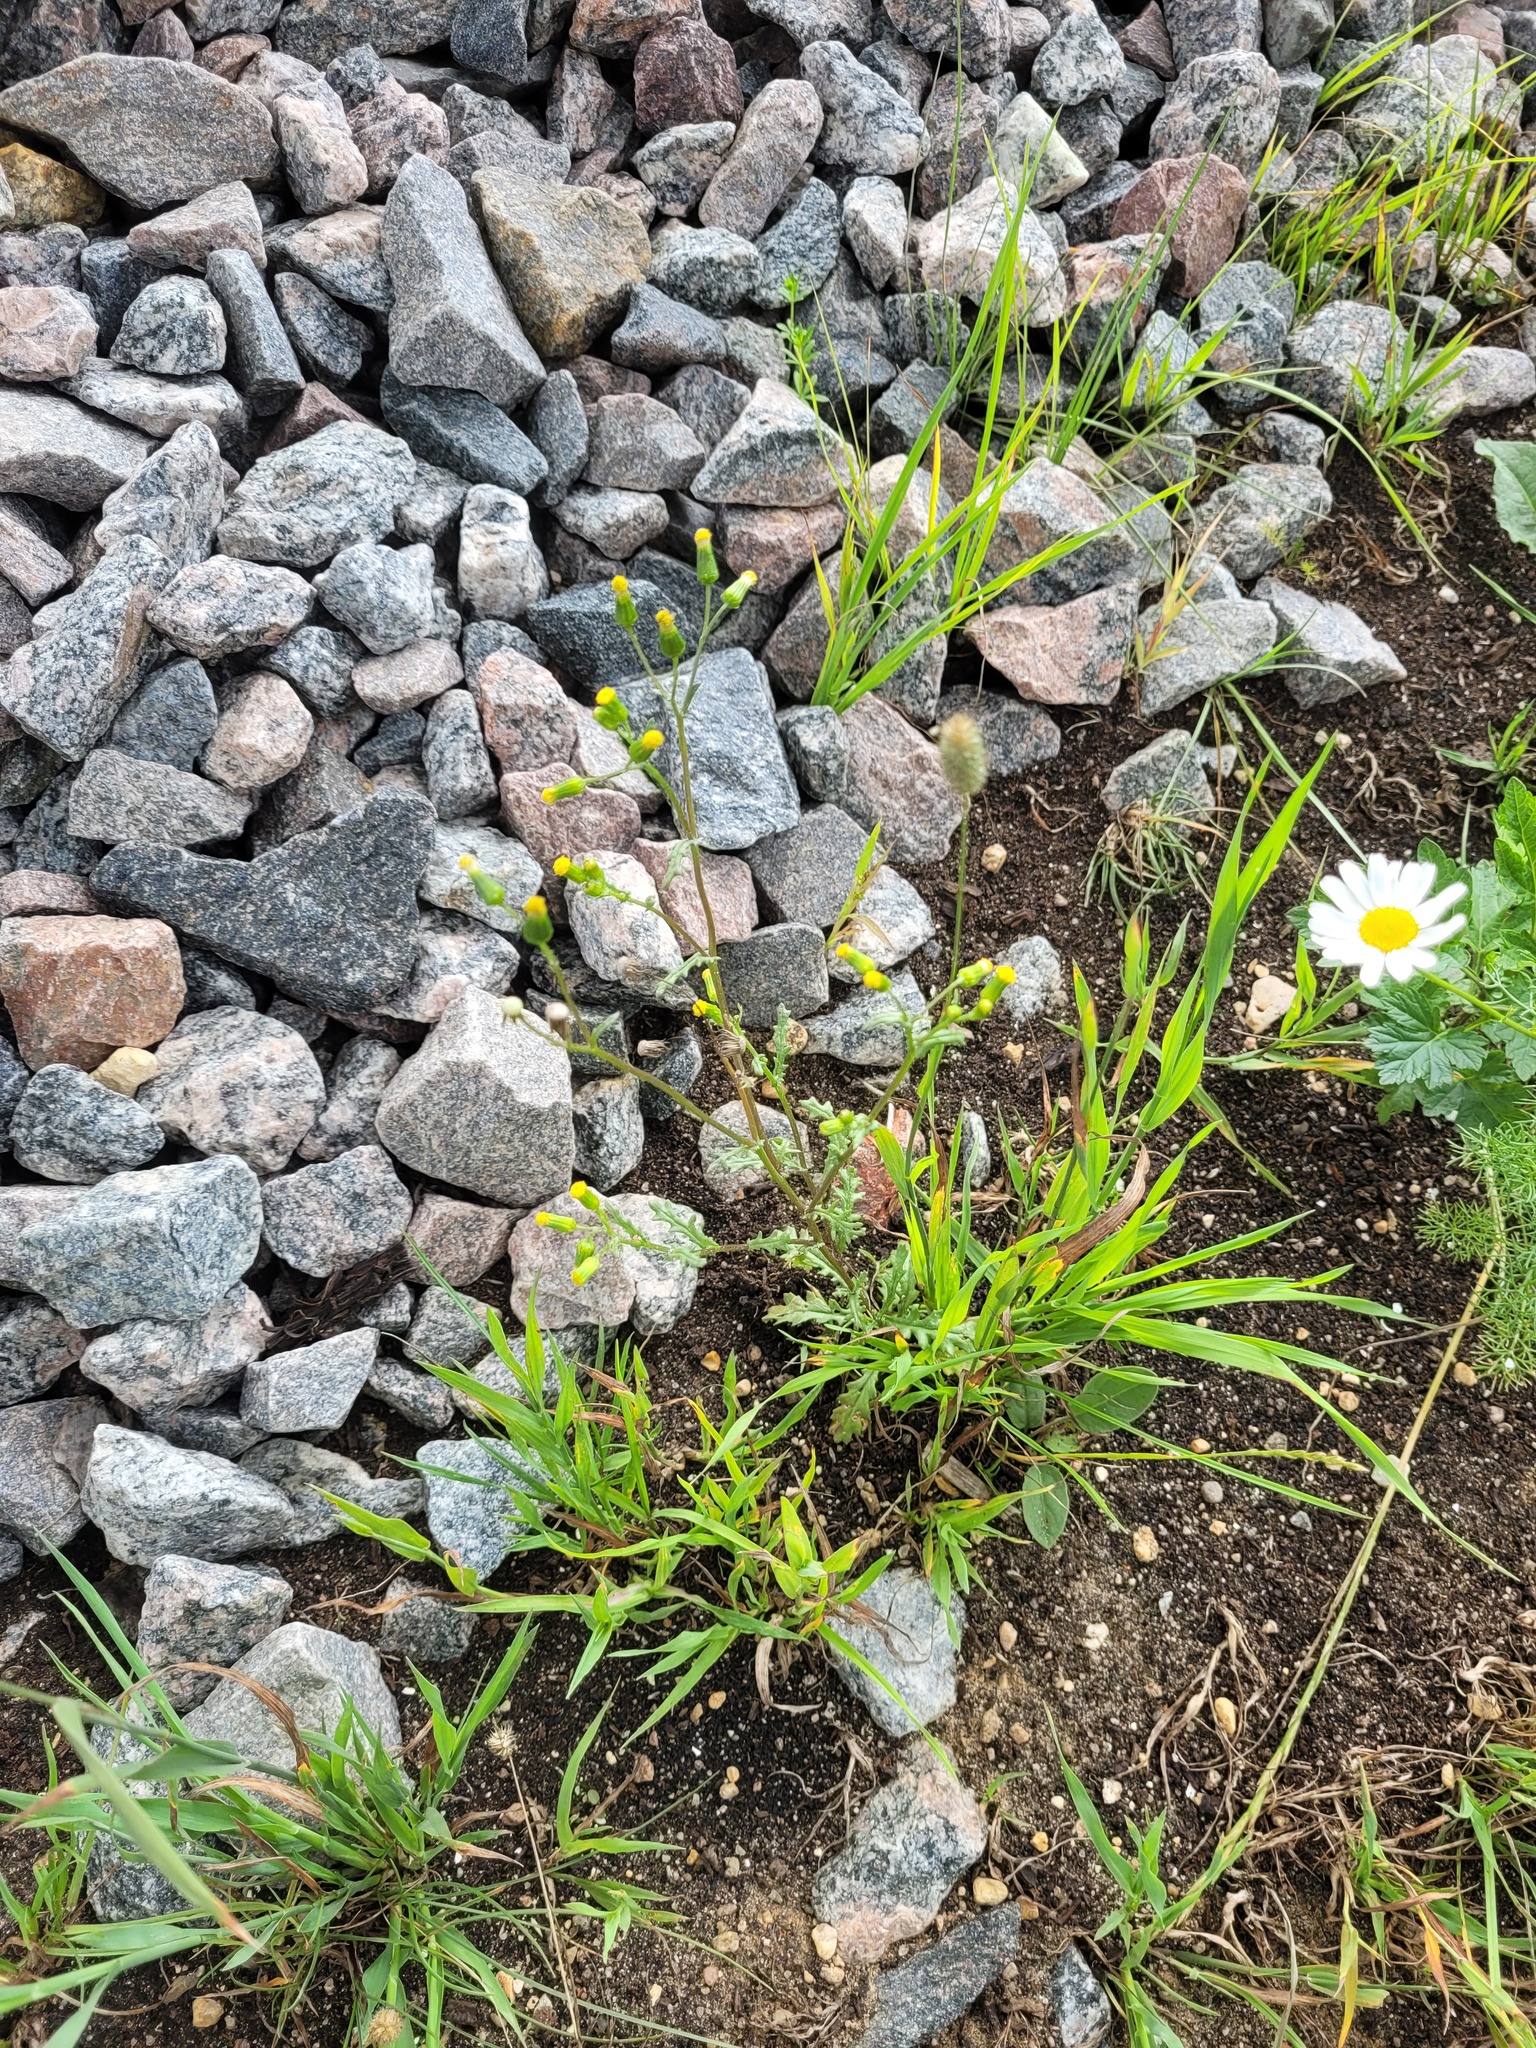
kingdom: Plantae
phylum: Tracheophyta
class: Magnoliopsida
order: Asterales
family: Asteraceae
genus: Senecio
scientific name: Senecio vulgaris
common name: Old-man-in-the-spring
